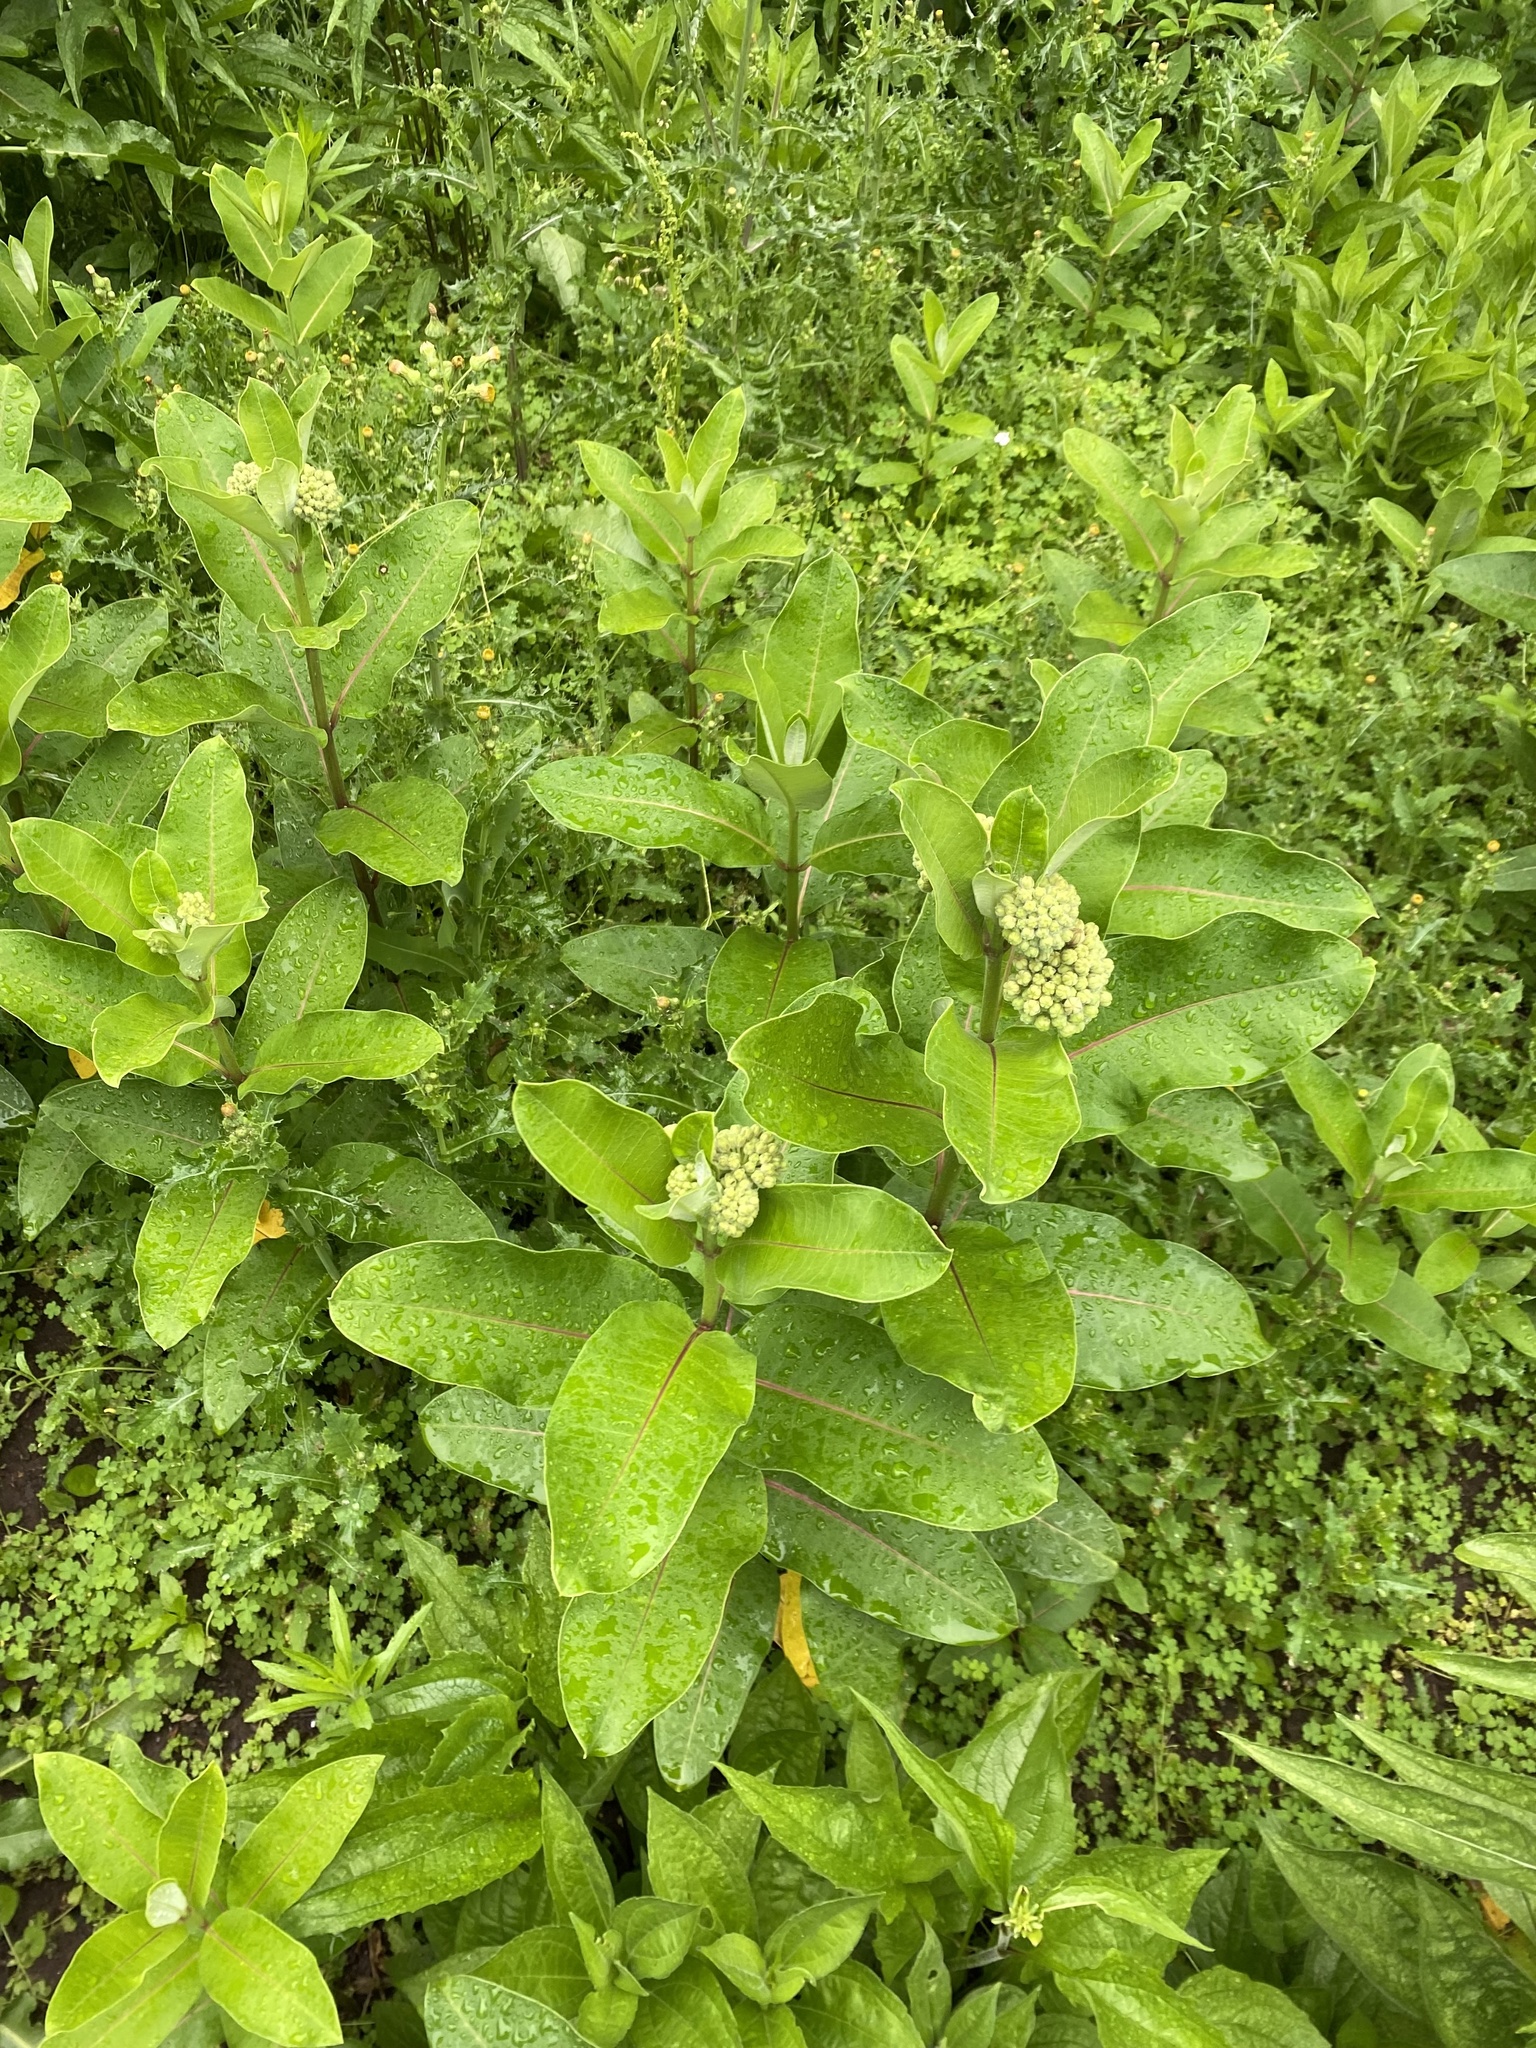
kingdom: Plantae
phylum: Tracheophyta
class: Magnoliopsida
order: Gentianales
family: Apocynaceae
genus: Asclepias
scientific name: Asclepias syriaca
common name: Common milkweed
